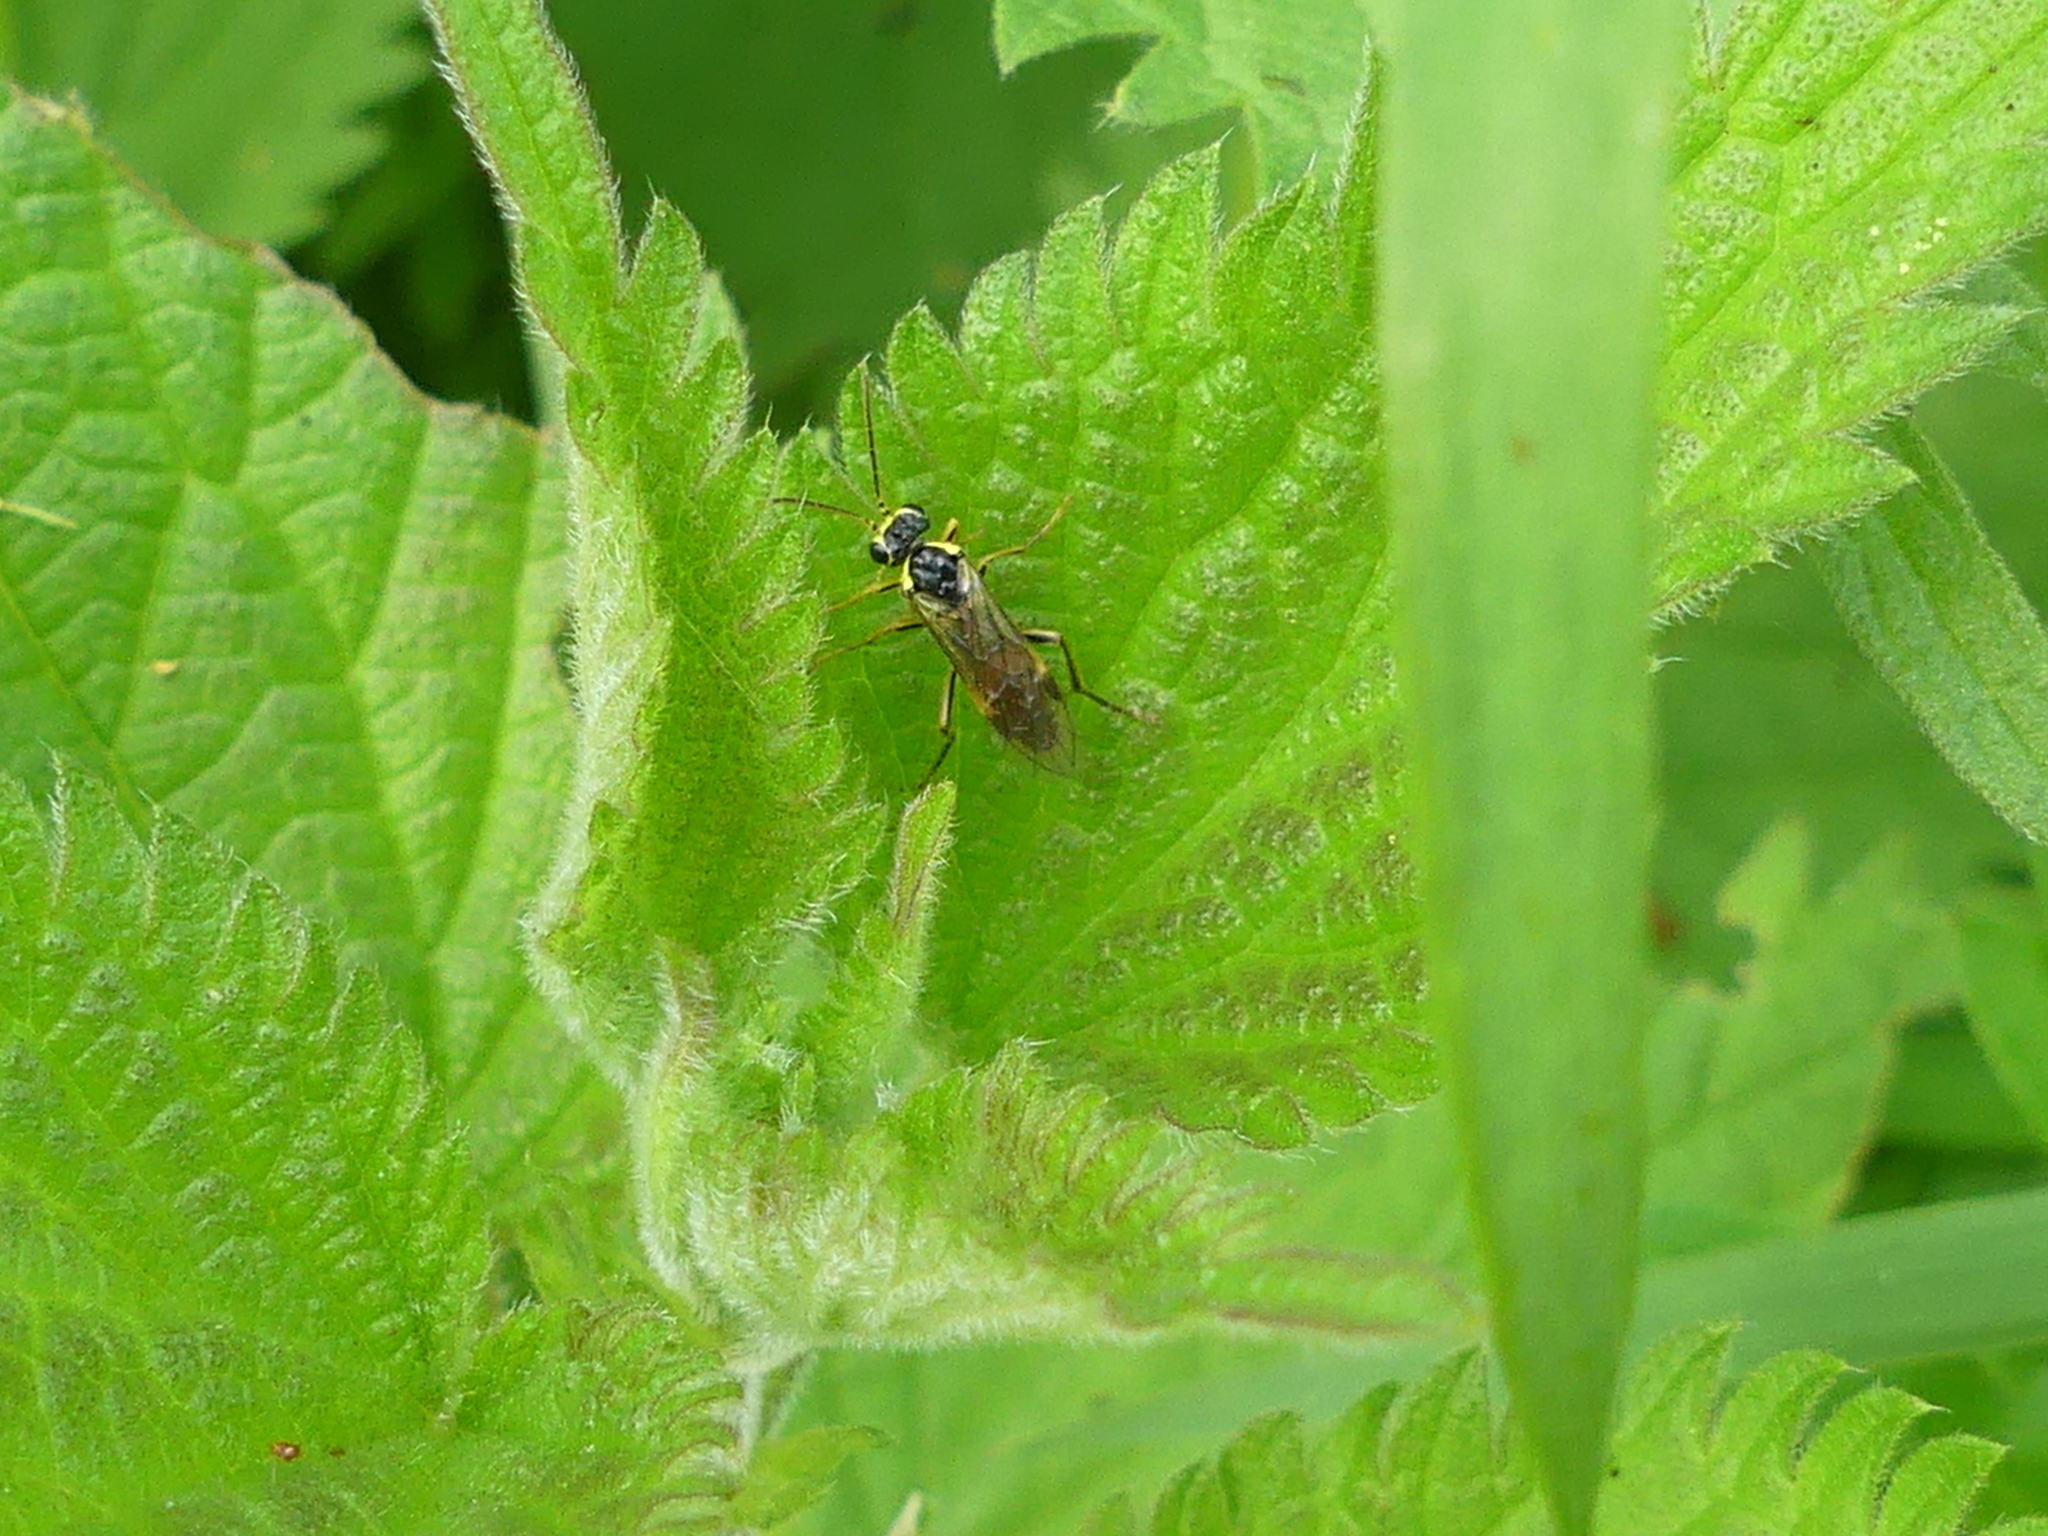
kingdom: Animalia
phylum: Arthropoda
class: Insecta
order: Hymenoptera
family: Tenthredinidae
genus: Aglaostigma
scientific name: Aglaostigma fulvipes
